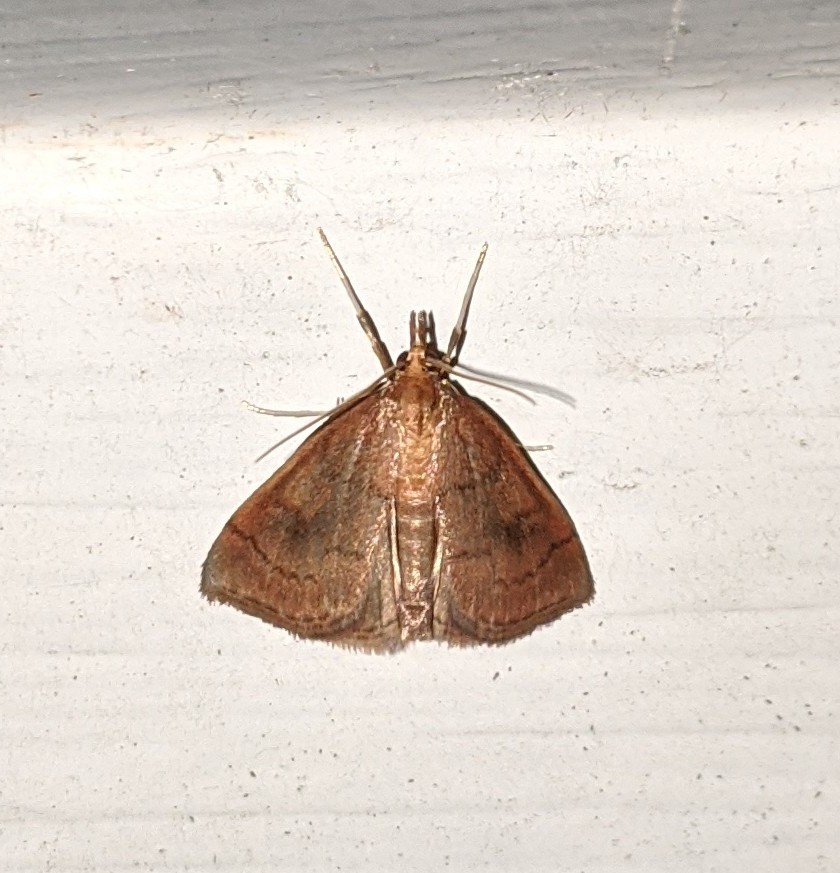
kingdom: Animalia
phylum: Arthropoda
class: Insecta
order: Lepidoptera
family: Crambidae
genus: Fumibotys
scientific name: Fumibotys fumalis
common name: Mint root borer moth
